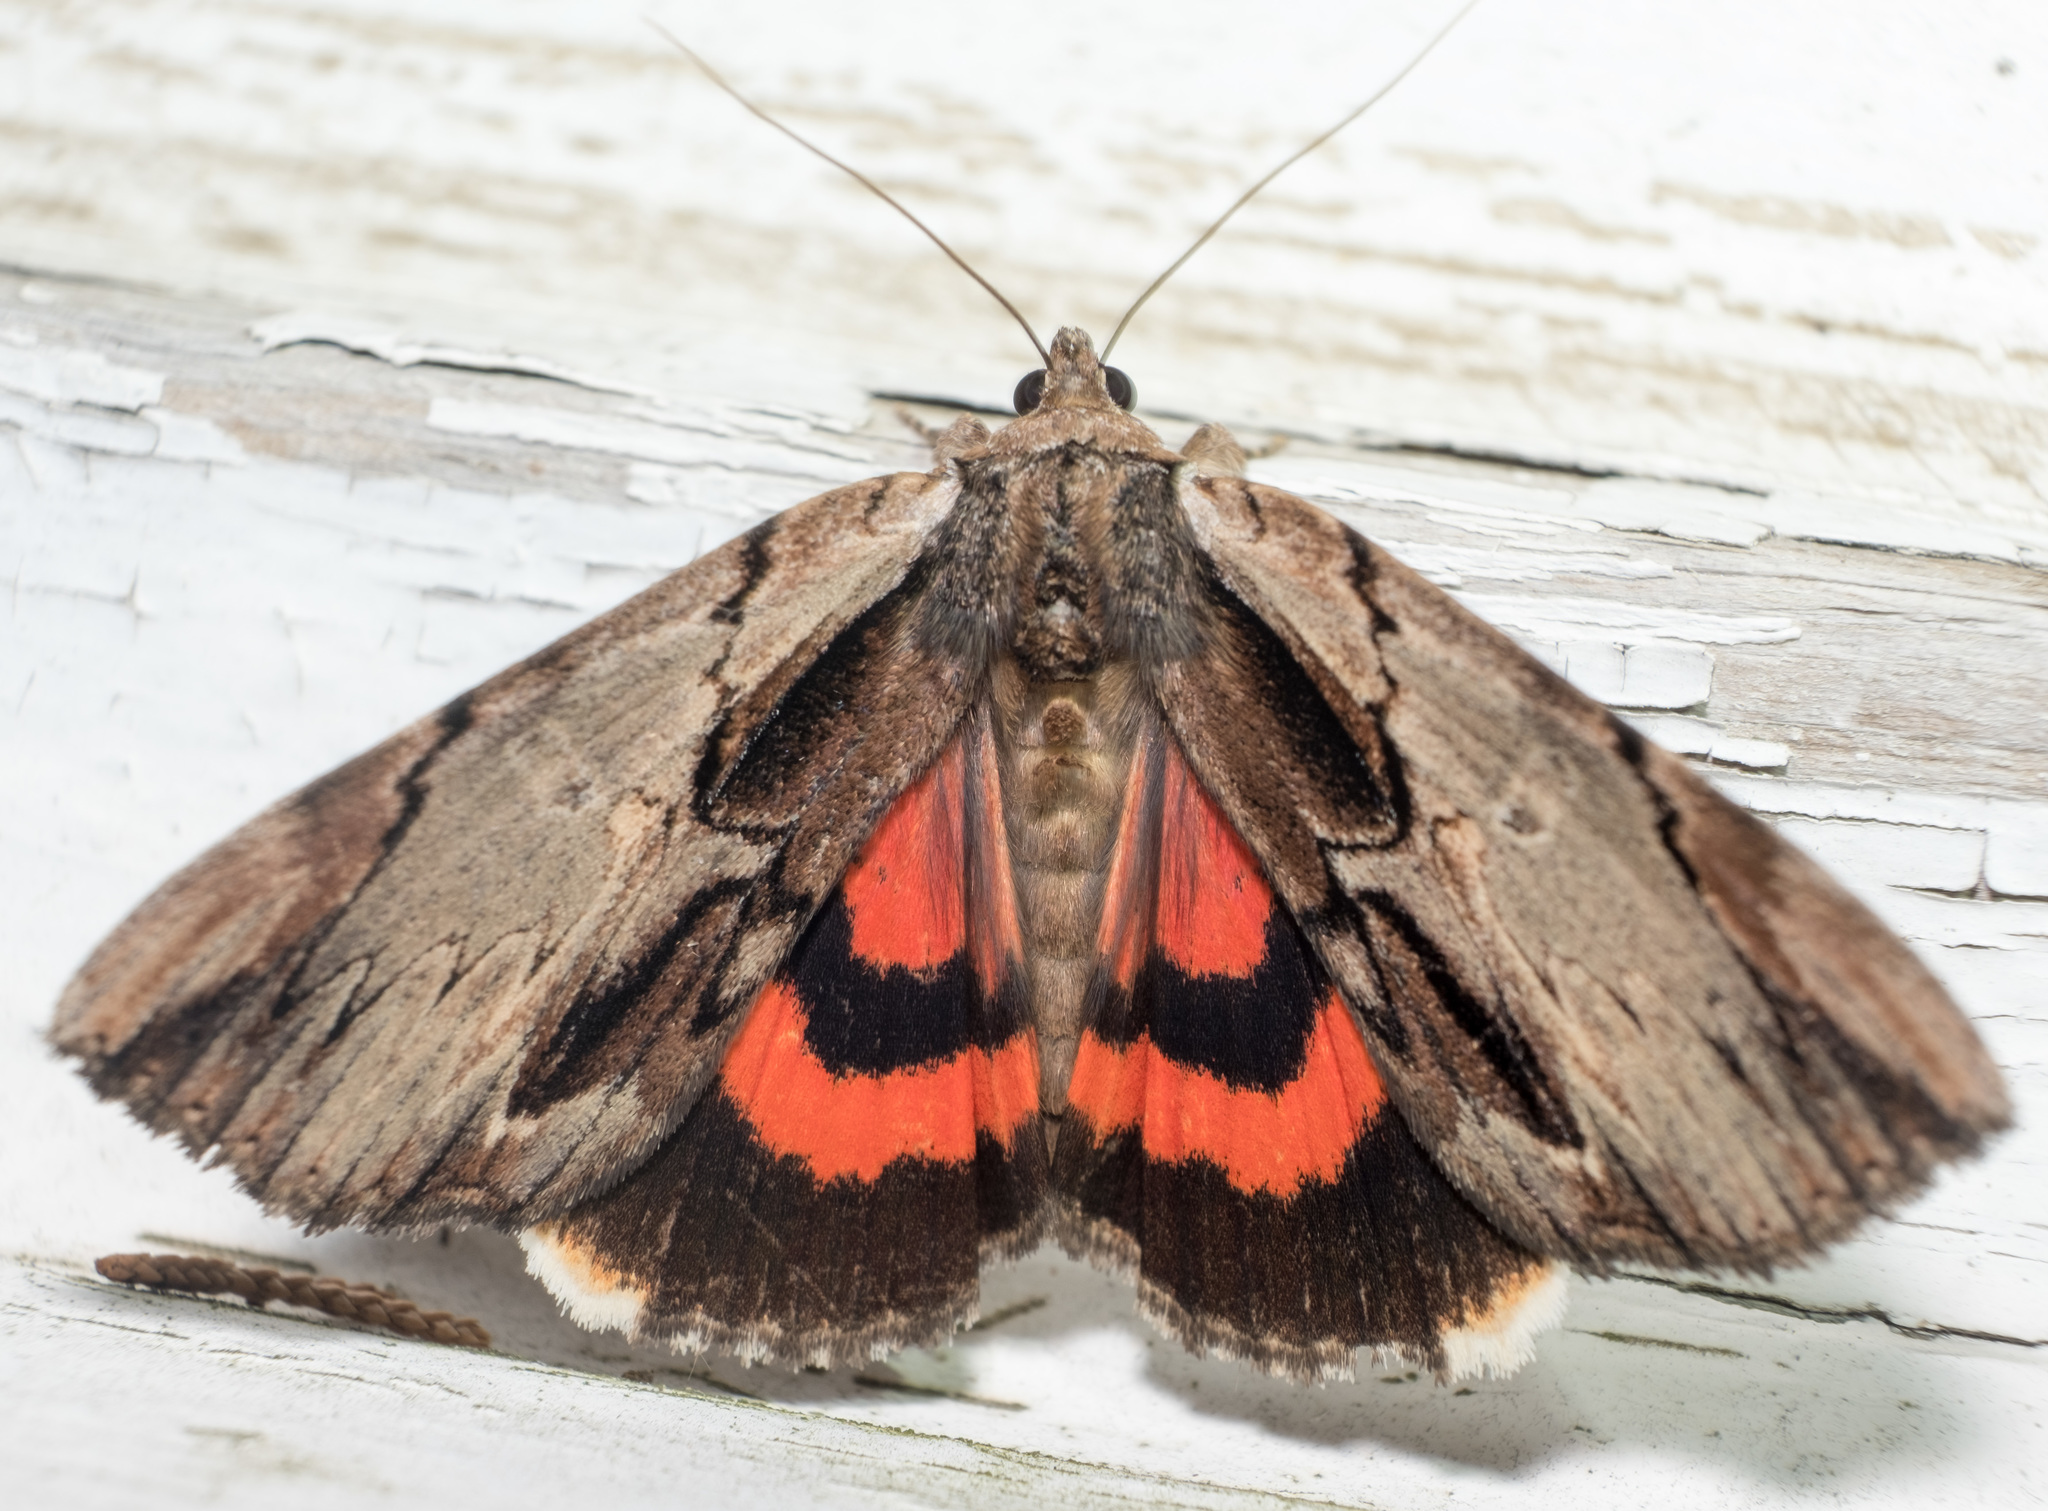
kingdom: Animalia
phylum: Arthropoda
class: Insecta
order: Lepidoptera
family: Erebidae
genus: Catocala
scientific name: Catocala ultronia
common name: Ultronia underwing
